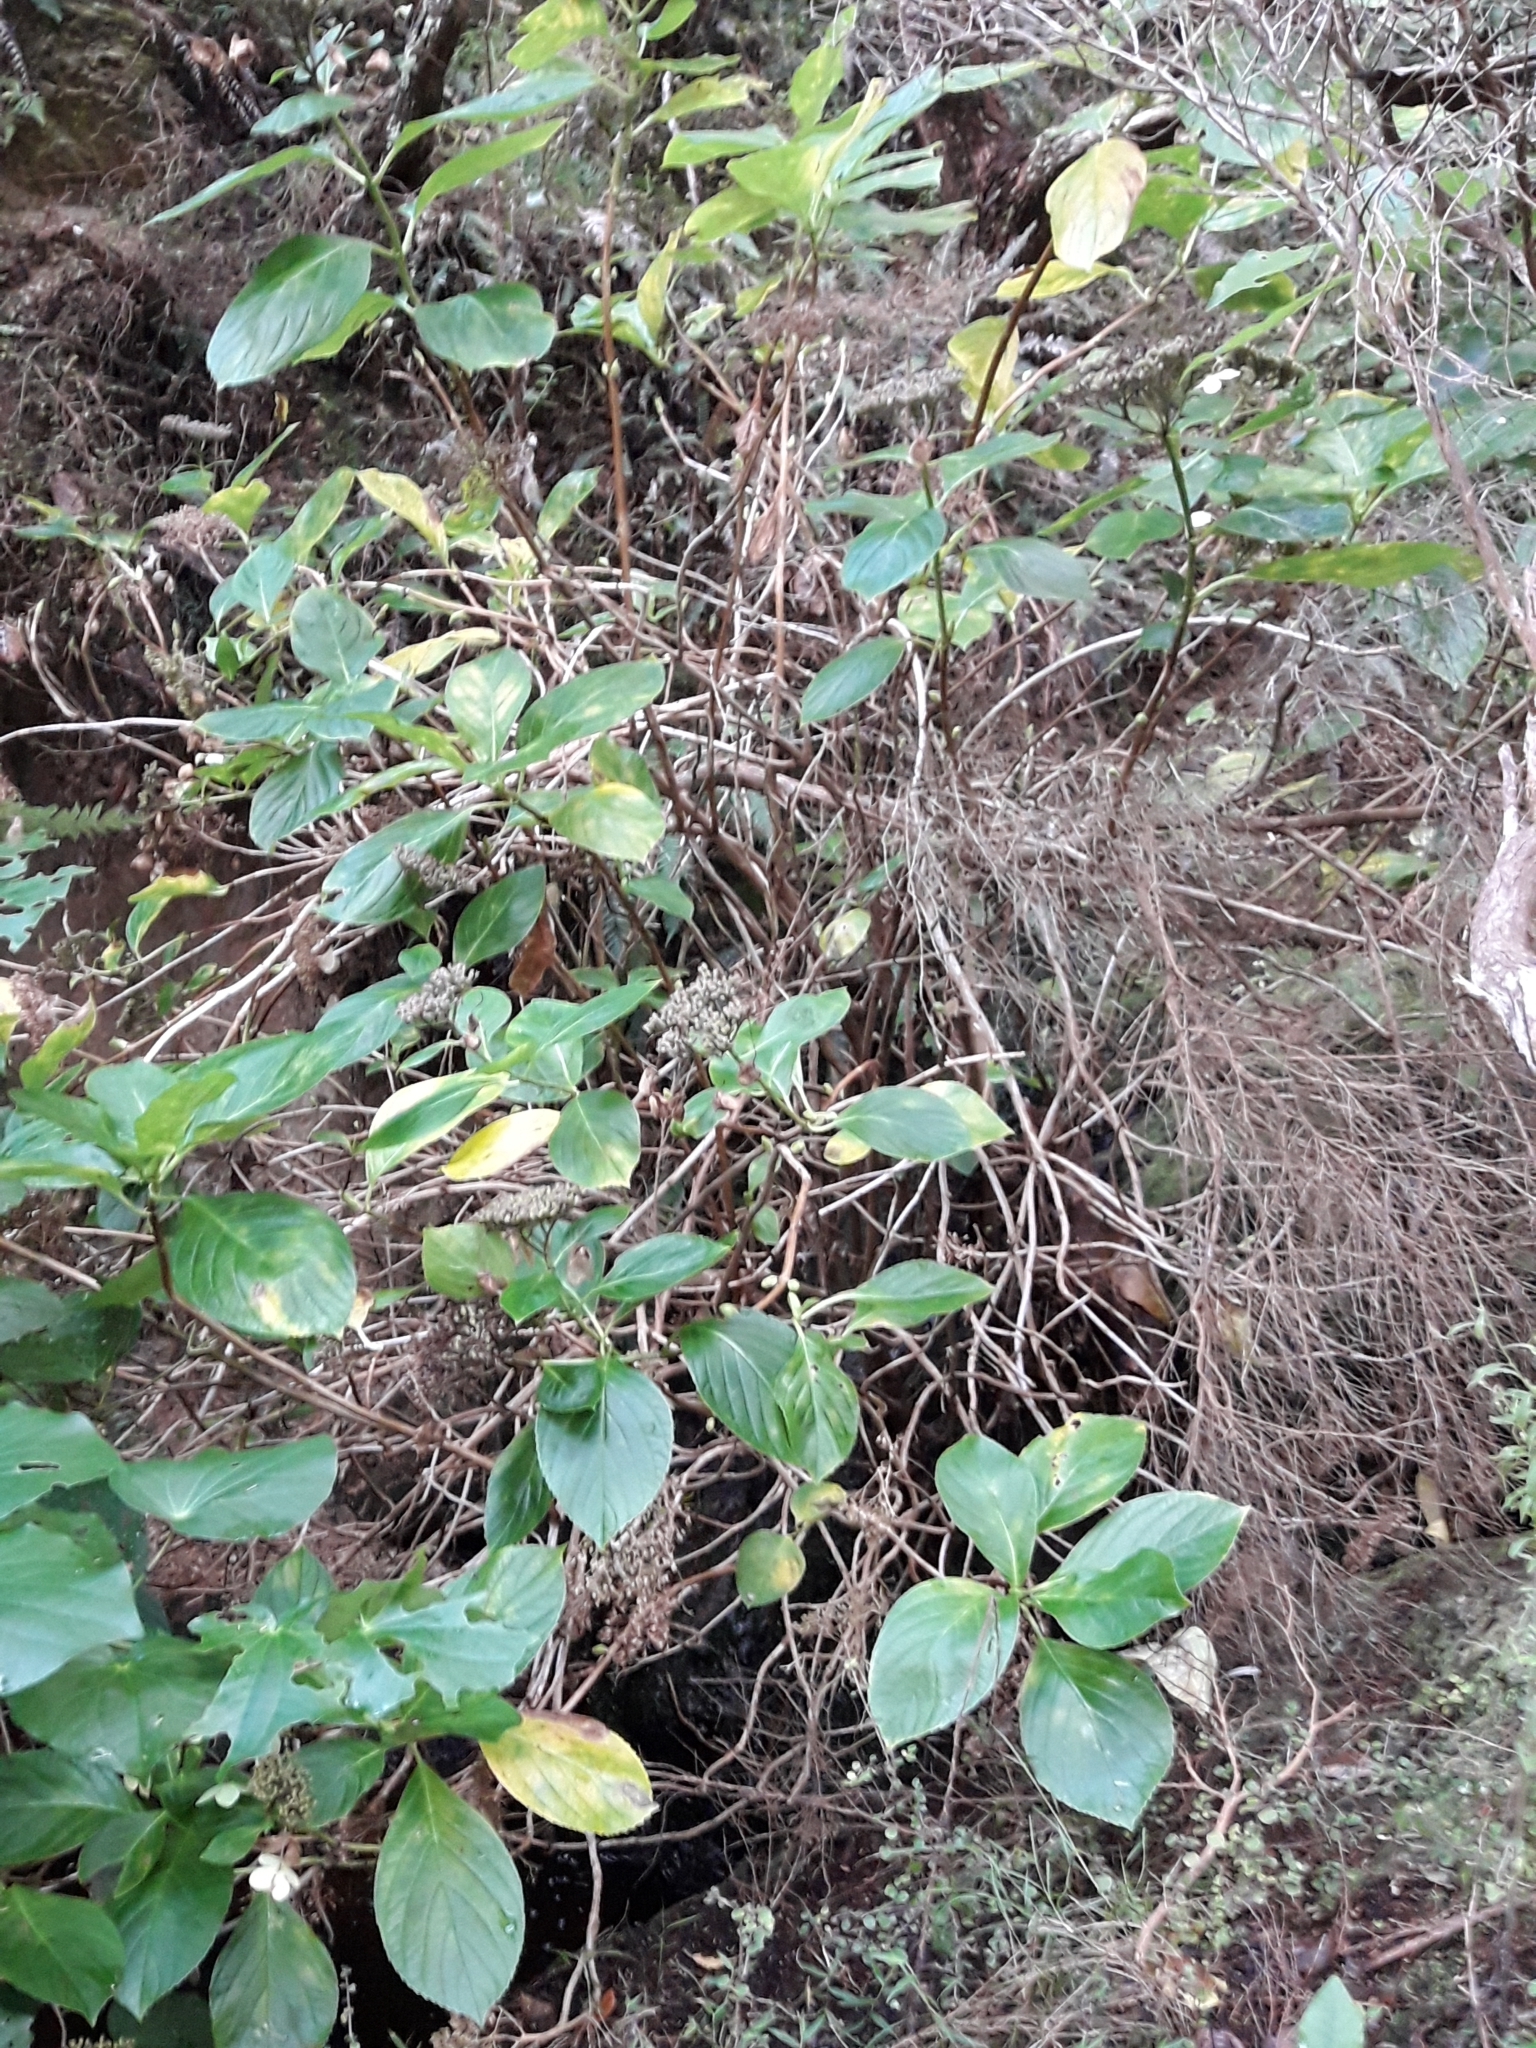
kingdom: Plantae
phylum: Tracheophyta
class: Magnoliopsida
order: Cornales
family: Hydrangeaceae
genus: Hydrangea
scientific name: Hydrangea macrophylla
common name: Hydrangea
